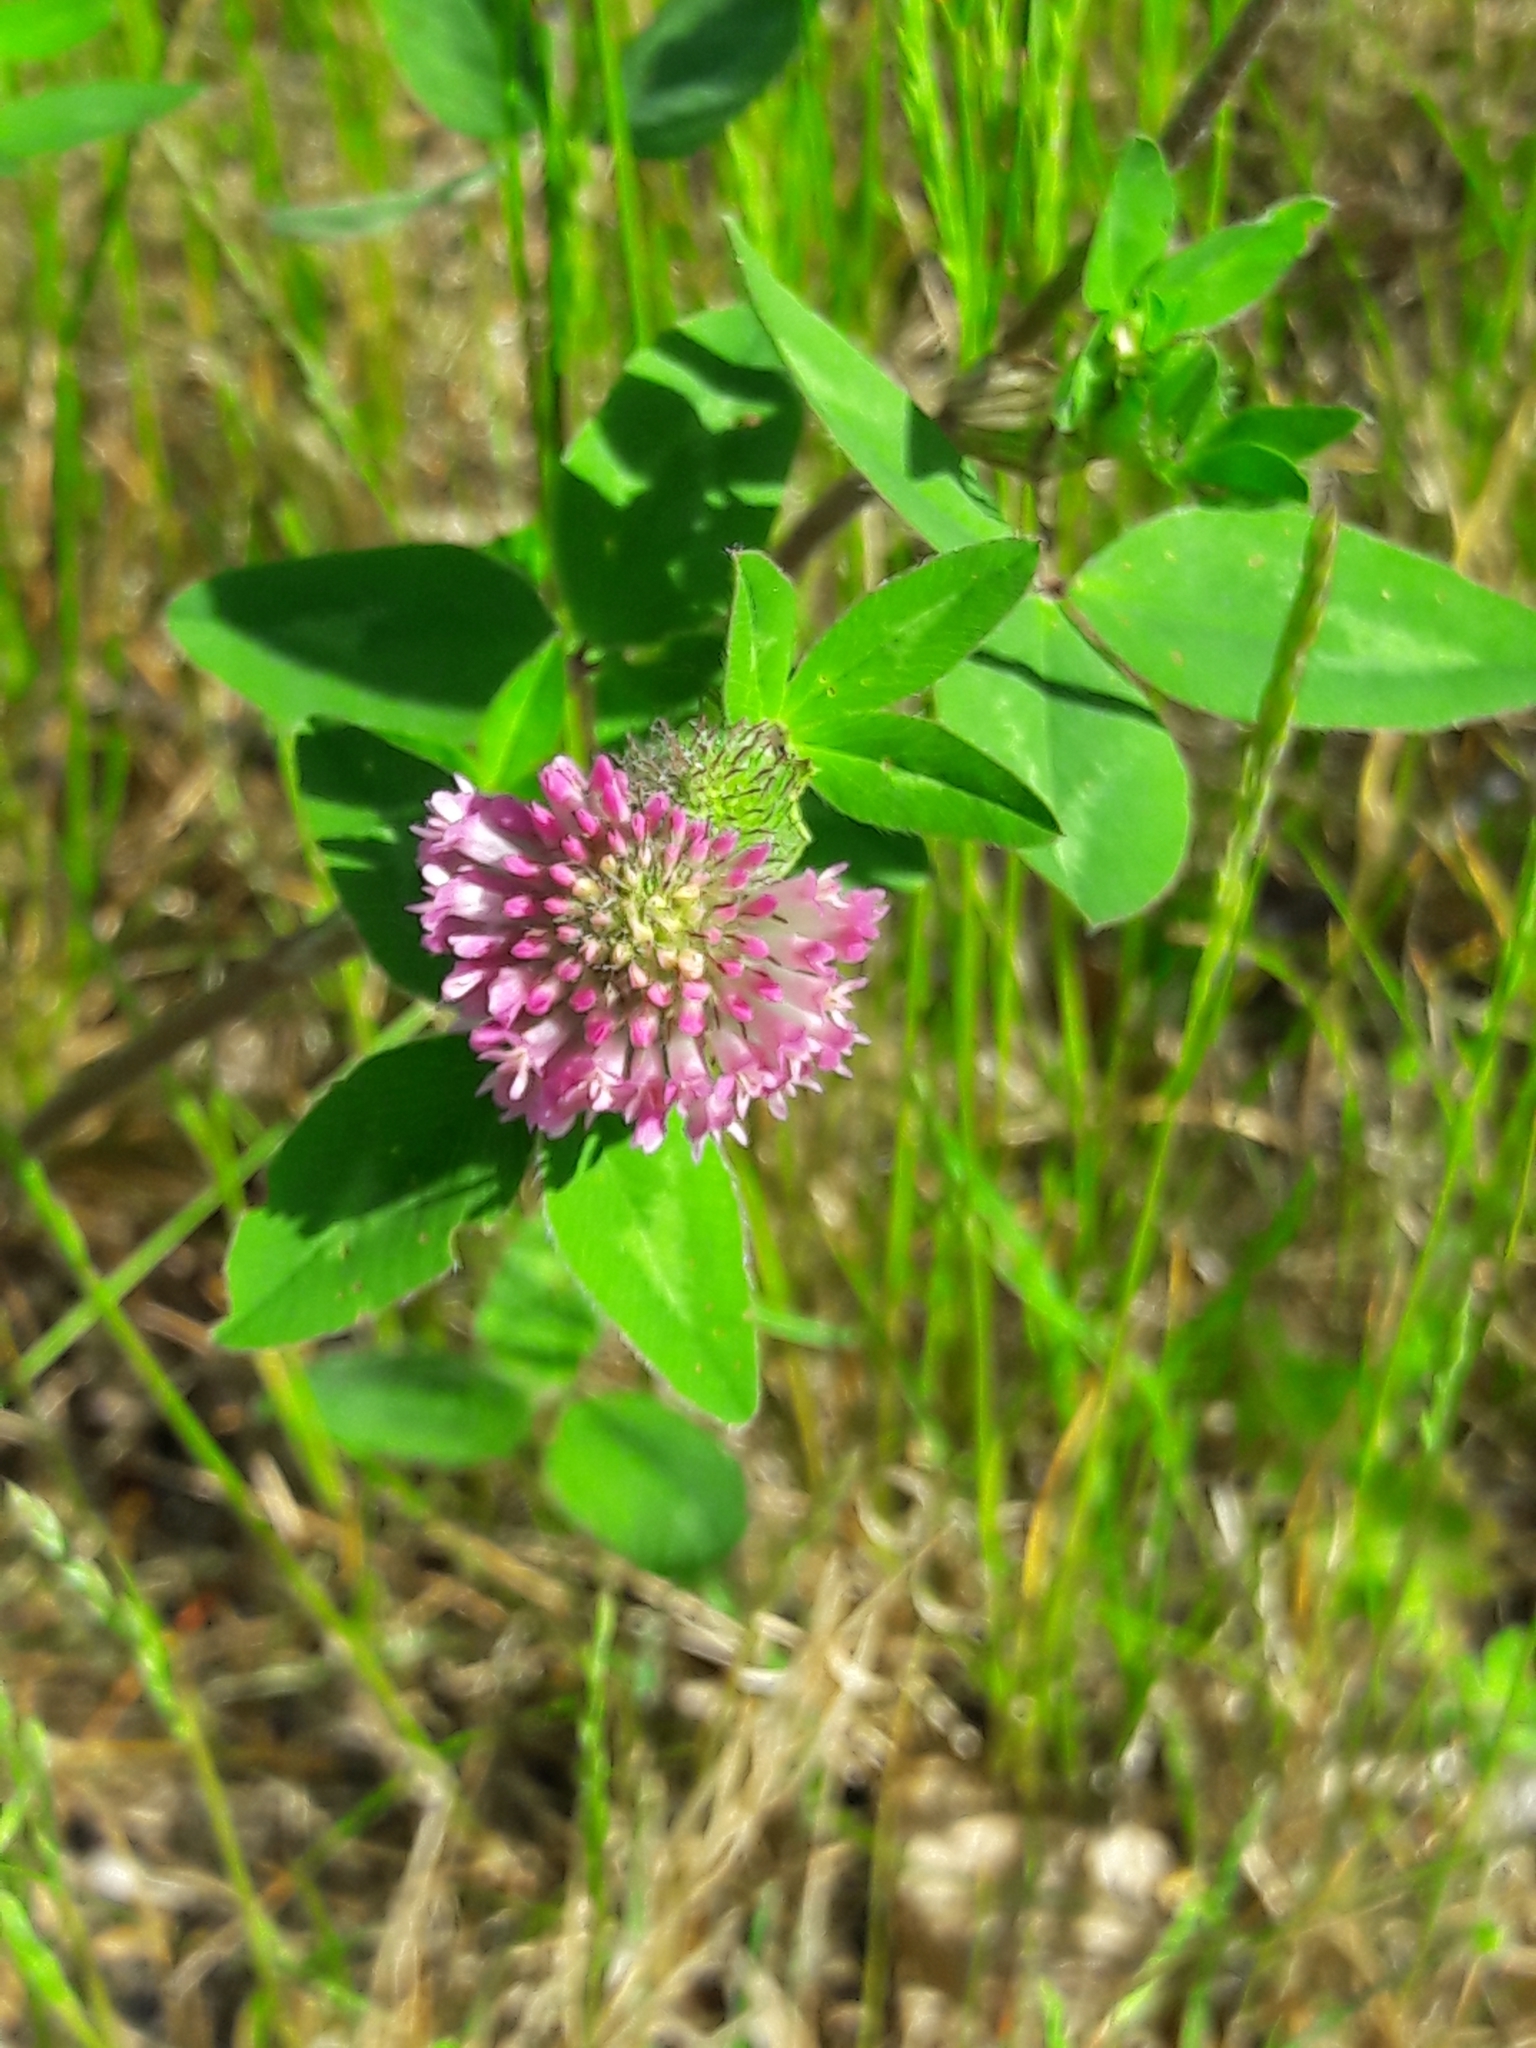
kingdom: Plantae
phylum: Tracheophyta
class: Magnoliopsida
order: Fabales
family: Fabaceae
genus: Trifolium
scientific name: Trifolium pratense
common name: Red clover
